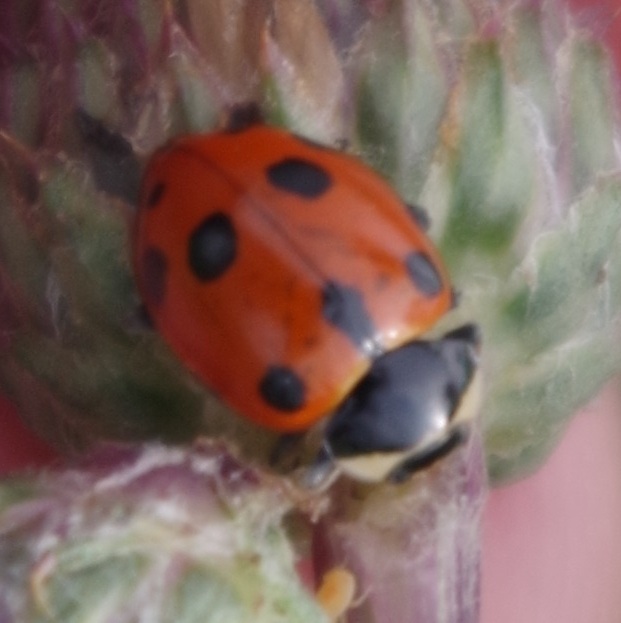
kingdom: Animalia
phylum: Arthropoda
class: Insecta
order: Coleoptera
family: Coccinellidae
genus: Ceratomegilla
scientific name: Ceratomegilla undecimnotata
